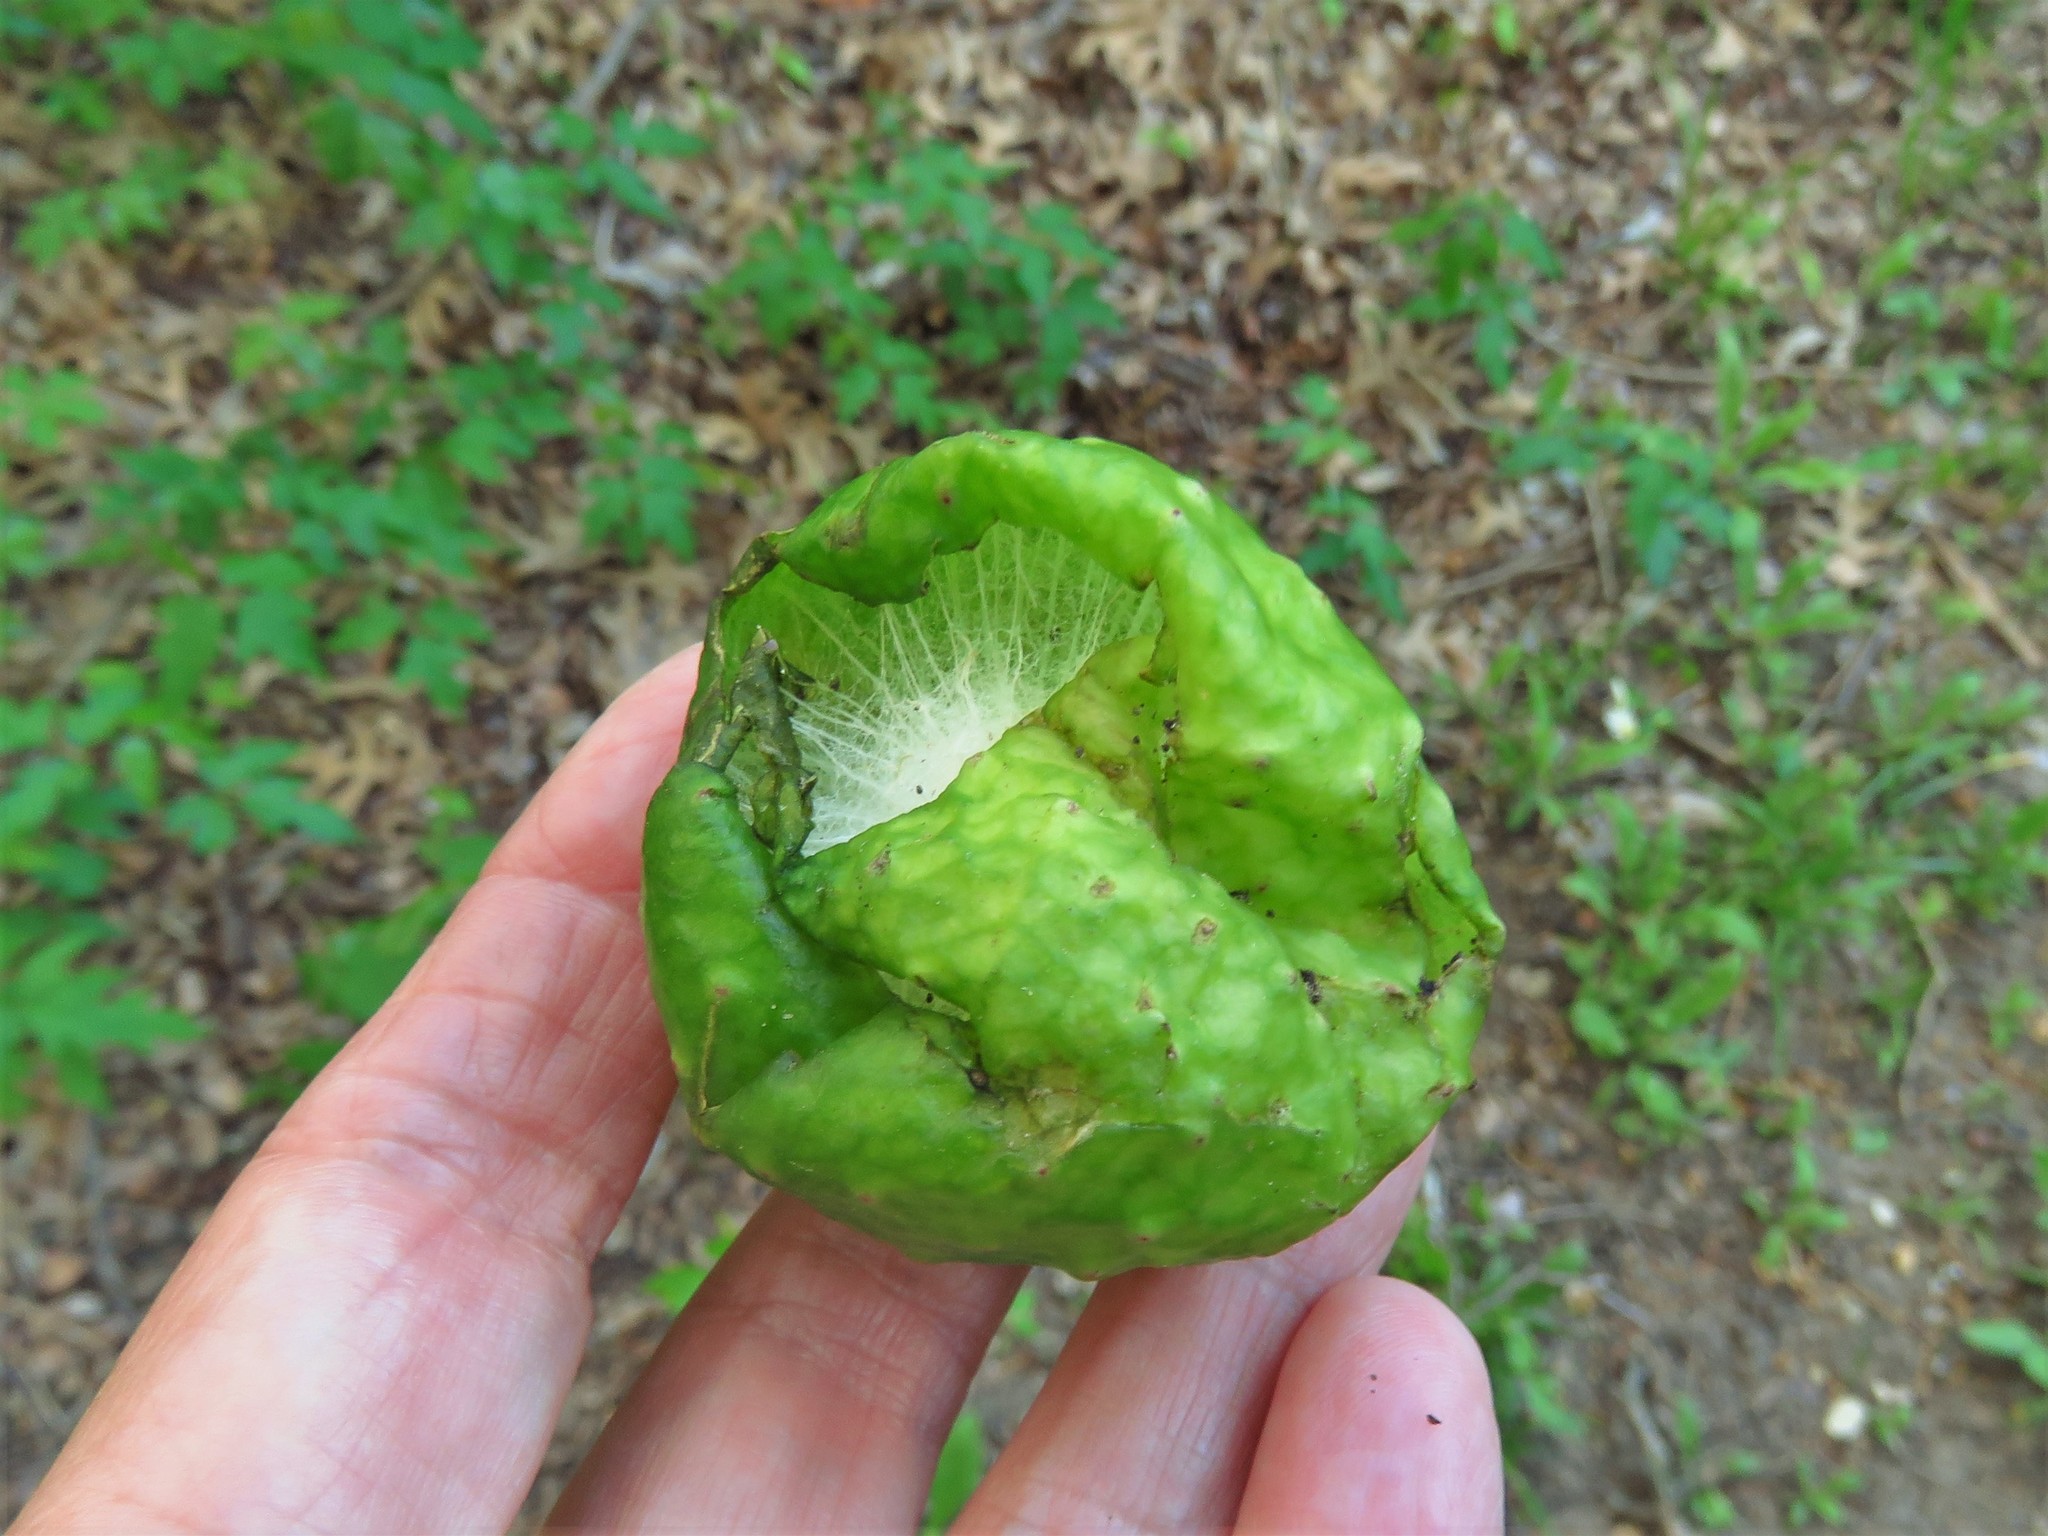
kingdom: Animalia
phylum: Arthropoda
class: Insecta
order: Hymenoptera
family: Cynipidae
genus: Amphibolips
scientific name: Amphibolips
